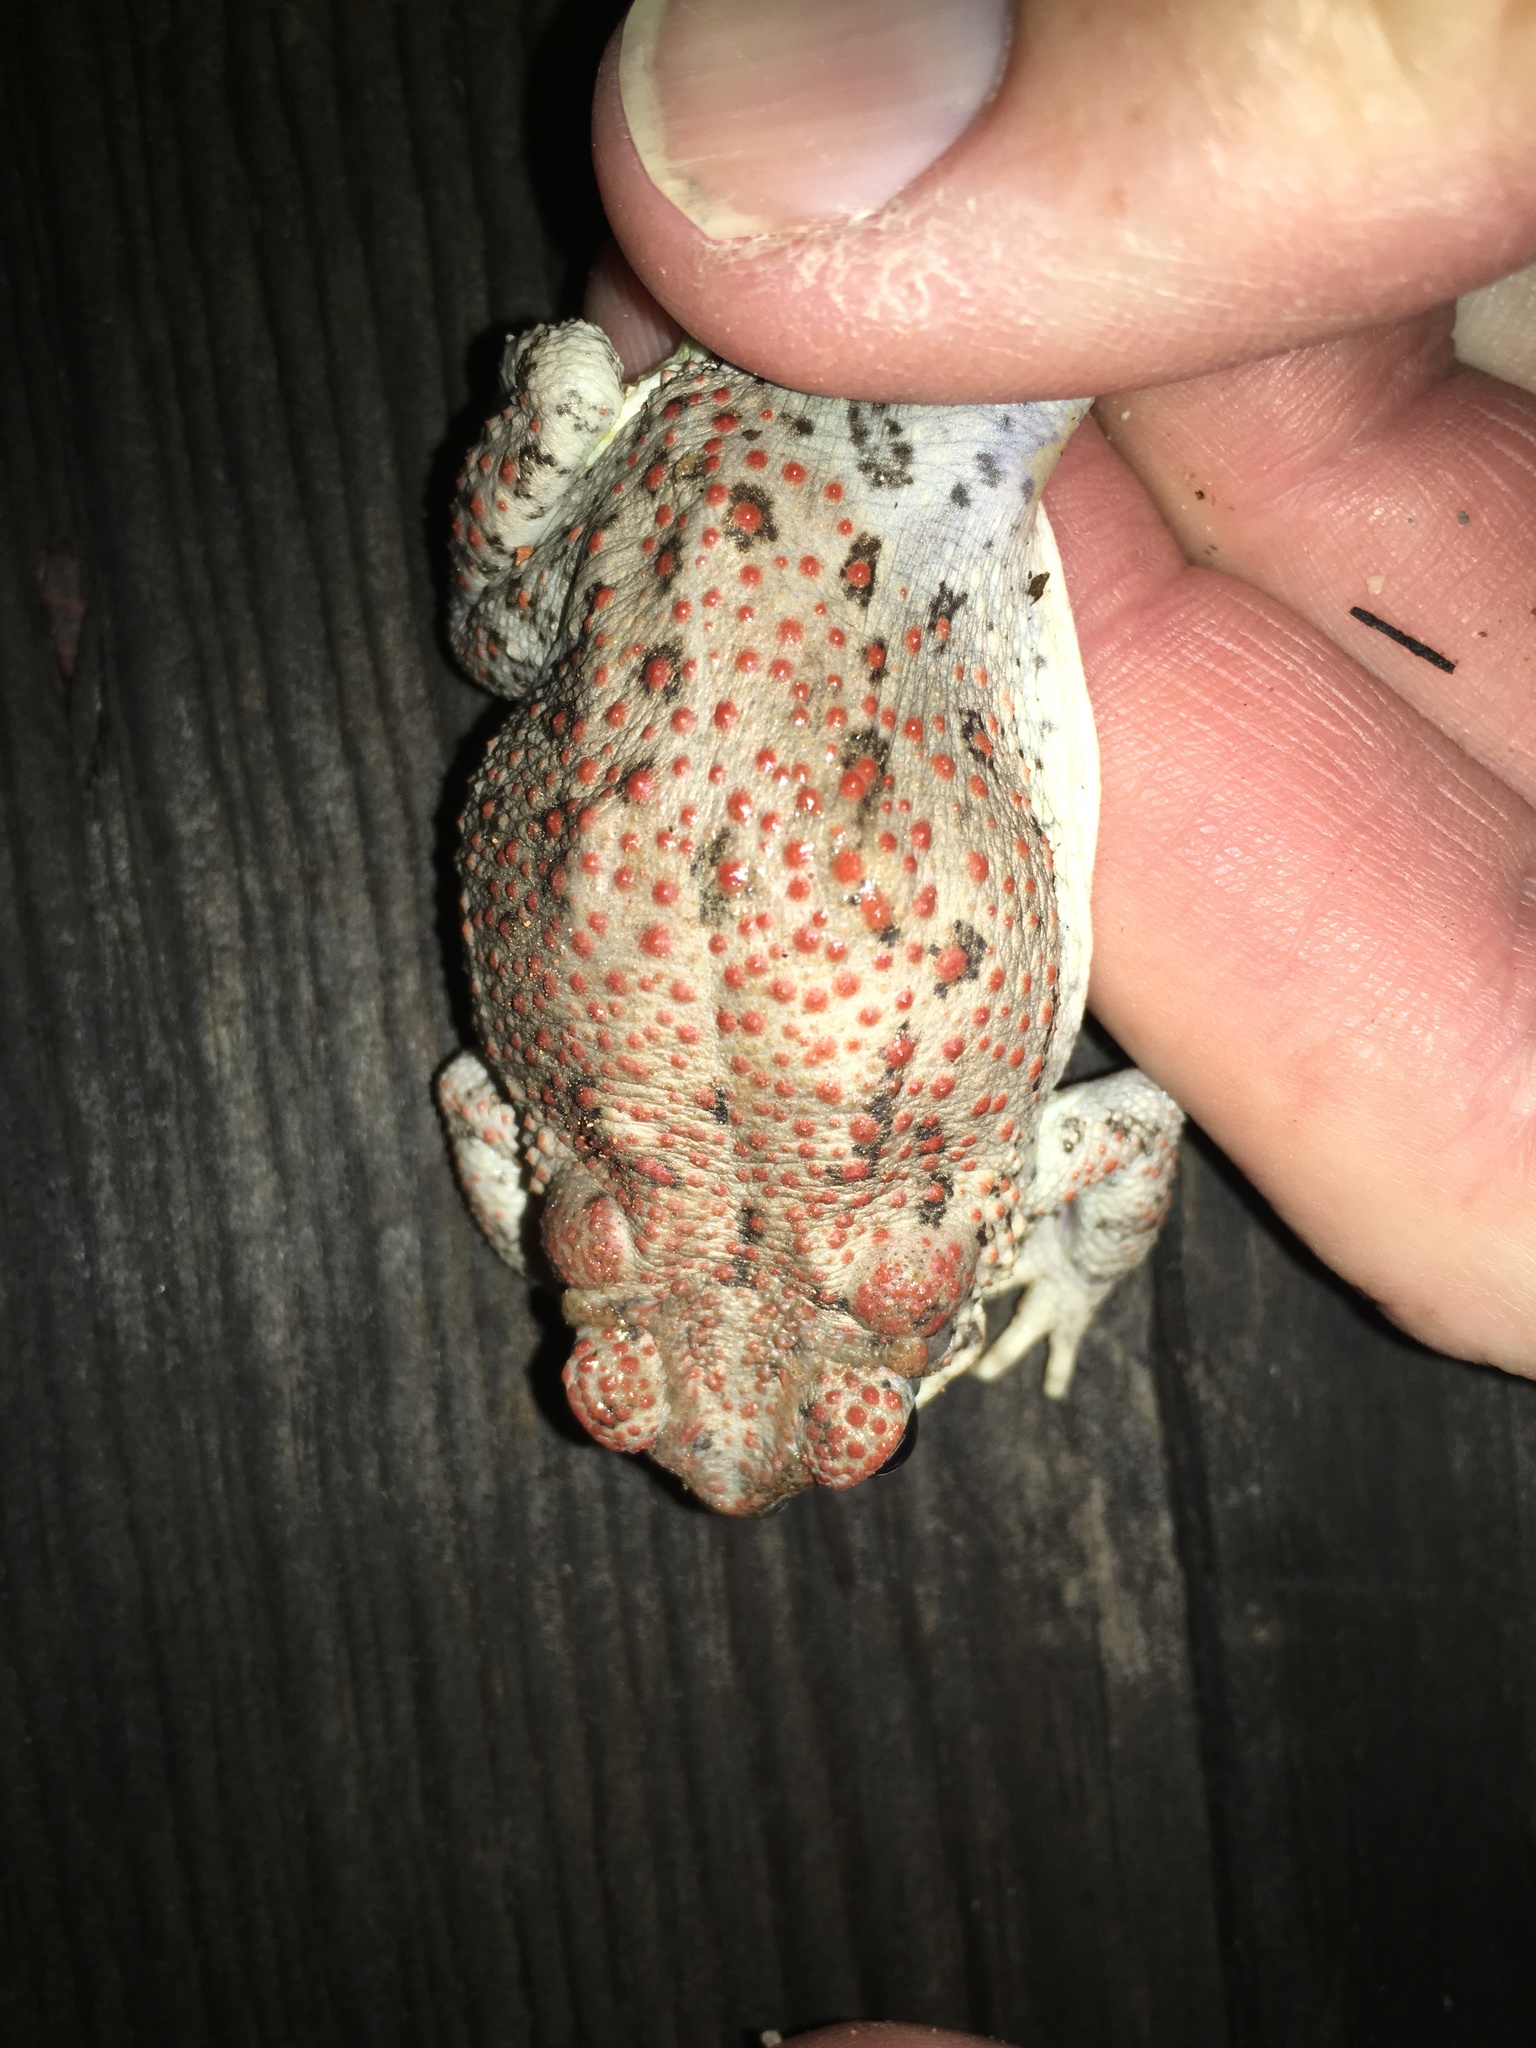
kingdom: Animalia
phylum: Chordata
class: Amphibia
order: Anura
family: Bufonidae
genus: Anaxyrus
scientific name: Anaxyrus punctatus
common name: Red-spotted toad
